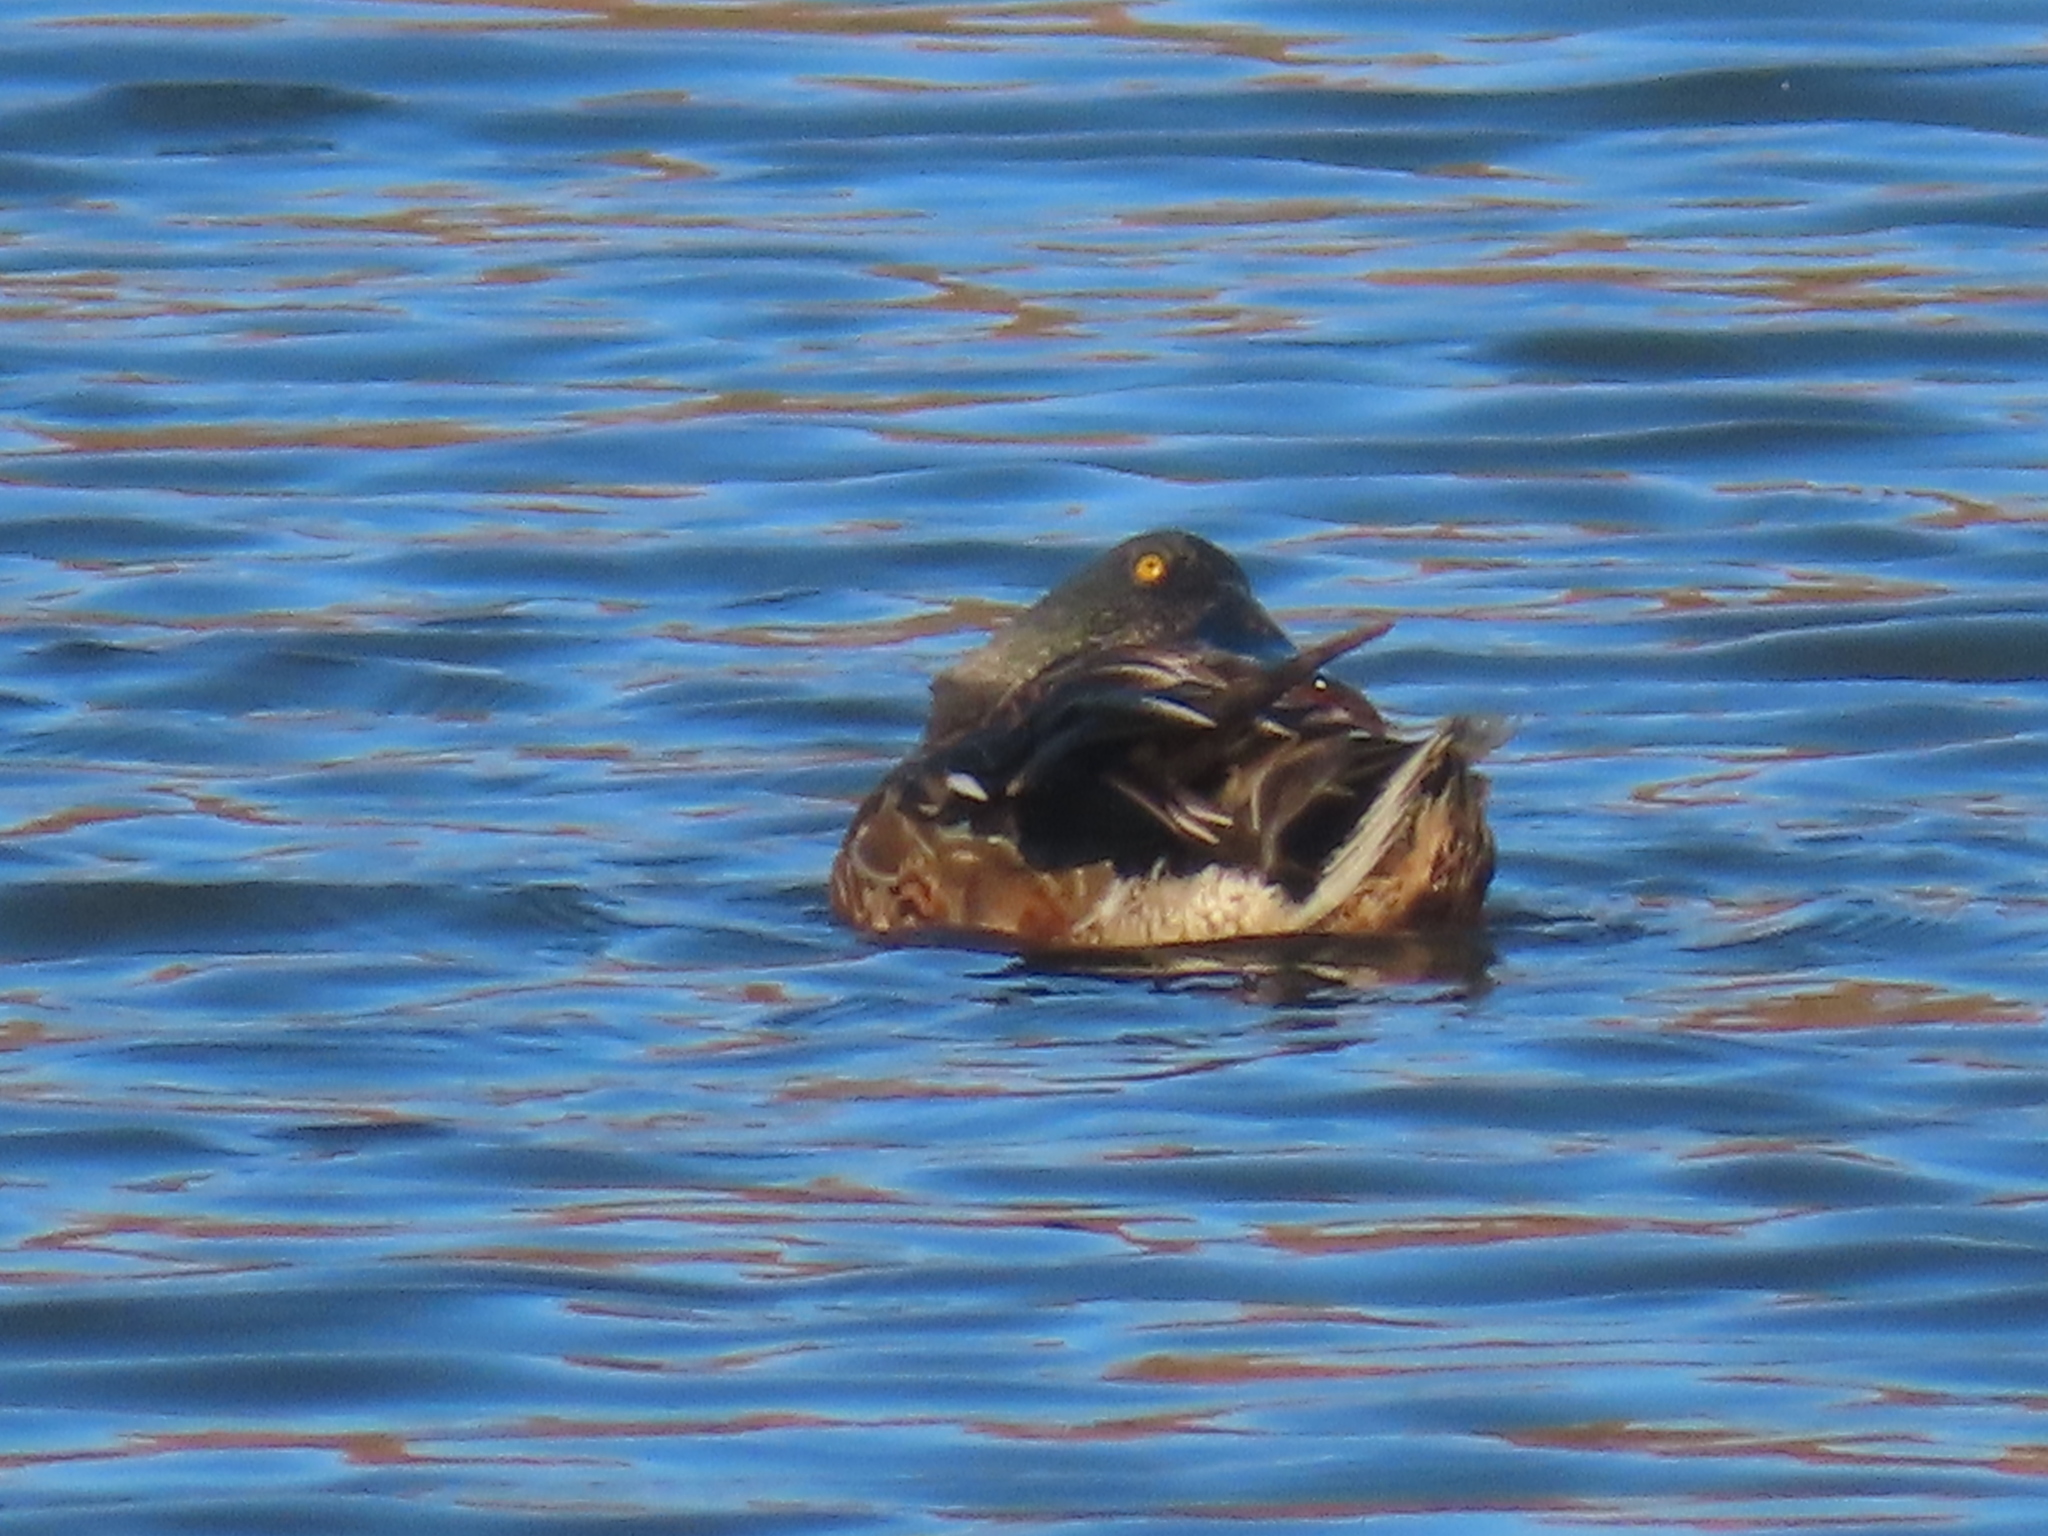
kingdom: Animalia
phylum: Chordata
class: Aves
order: Anseriformes
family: Anatidae
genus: Spatula
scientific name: Spatula clypeata
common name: Northern shoveler
